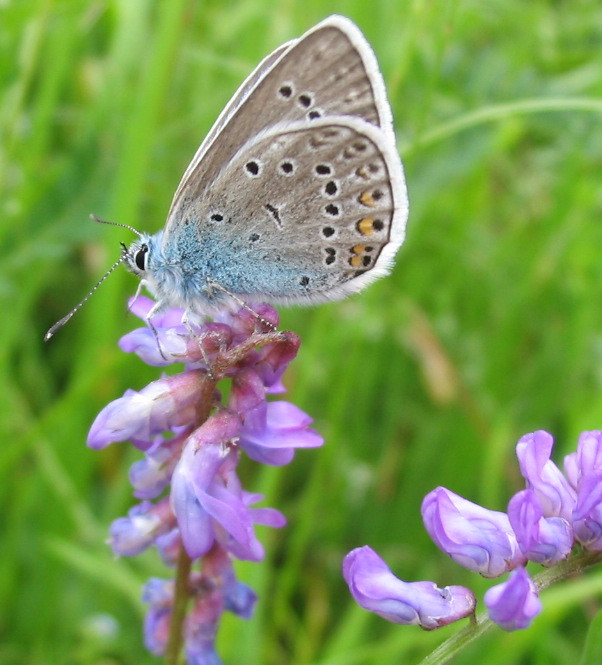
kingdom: Animalia
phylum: Arthropoda
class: Insecta
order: Lepidoptera
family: Lycaenidae
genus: Plebejus
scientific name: Plebejus amanda
